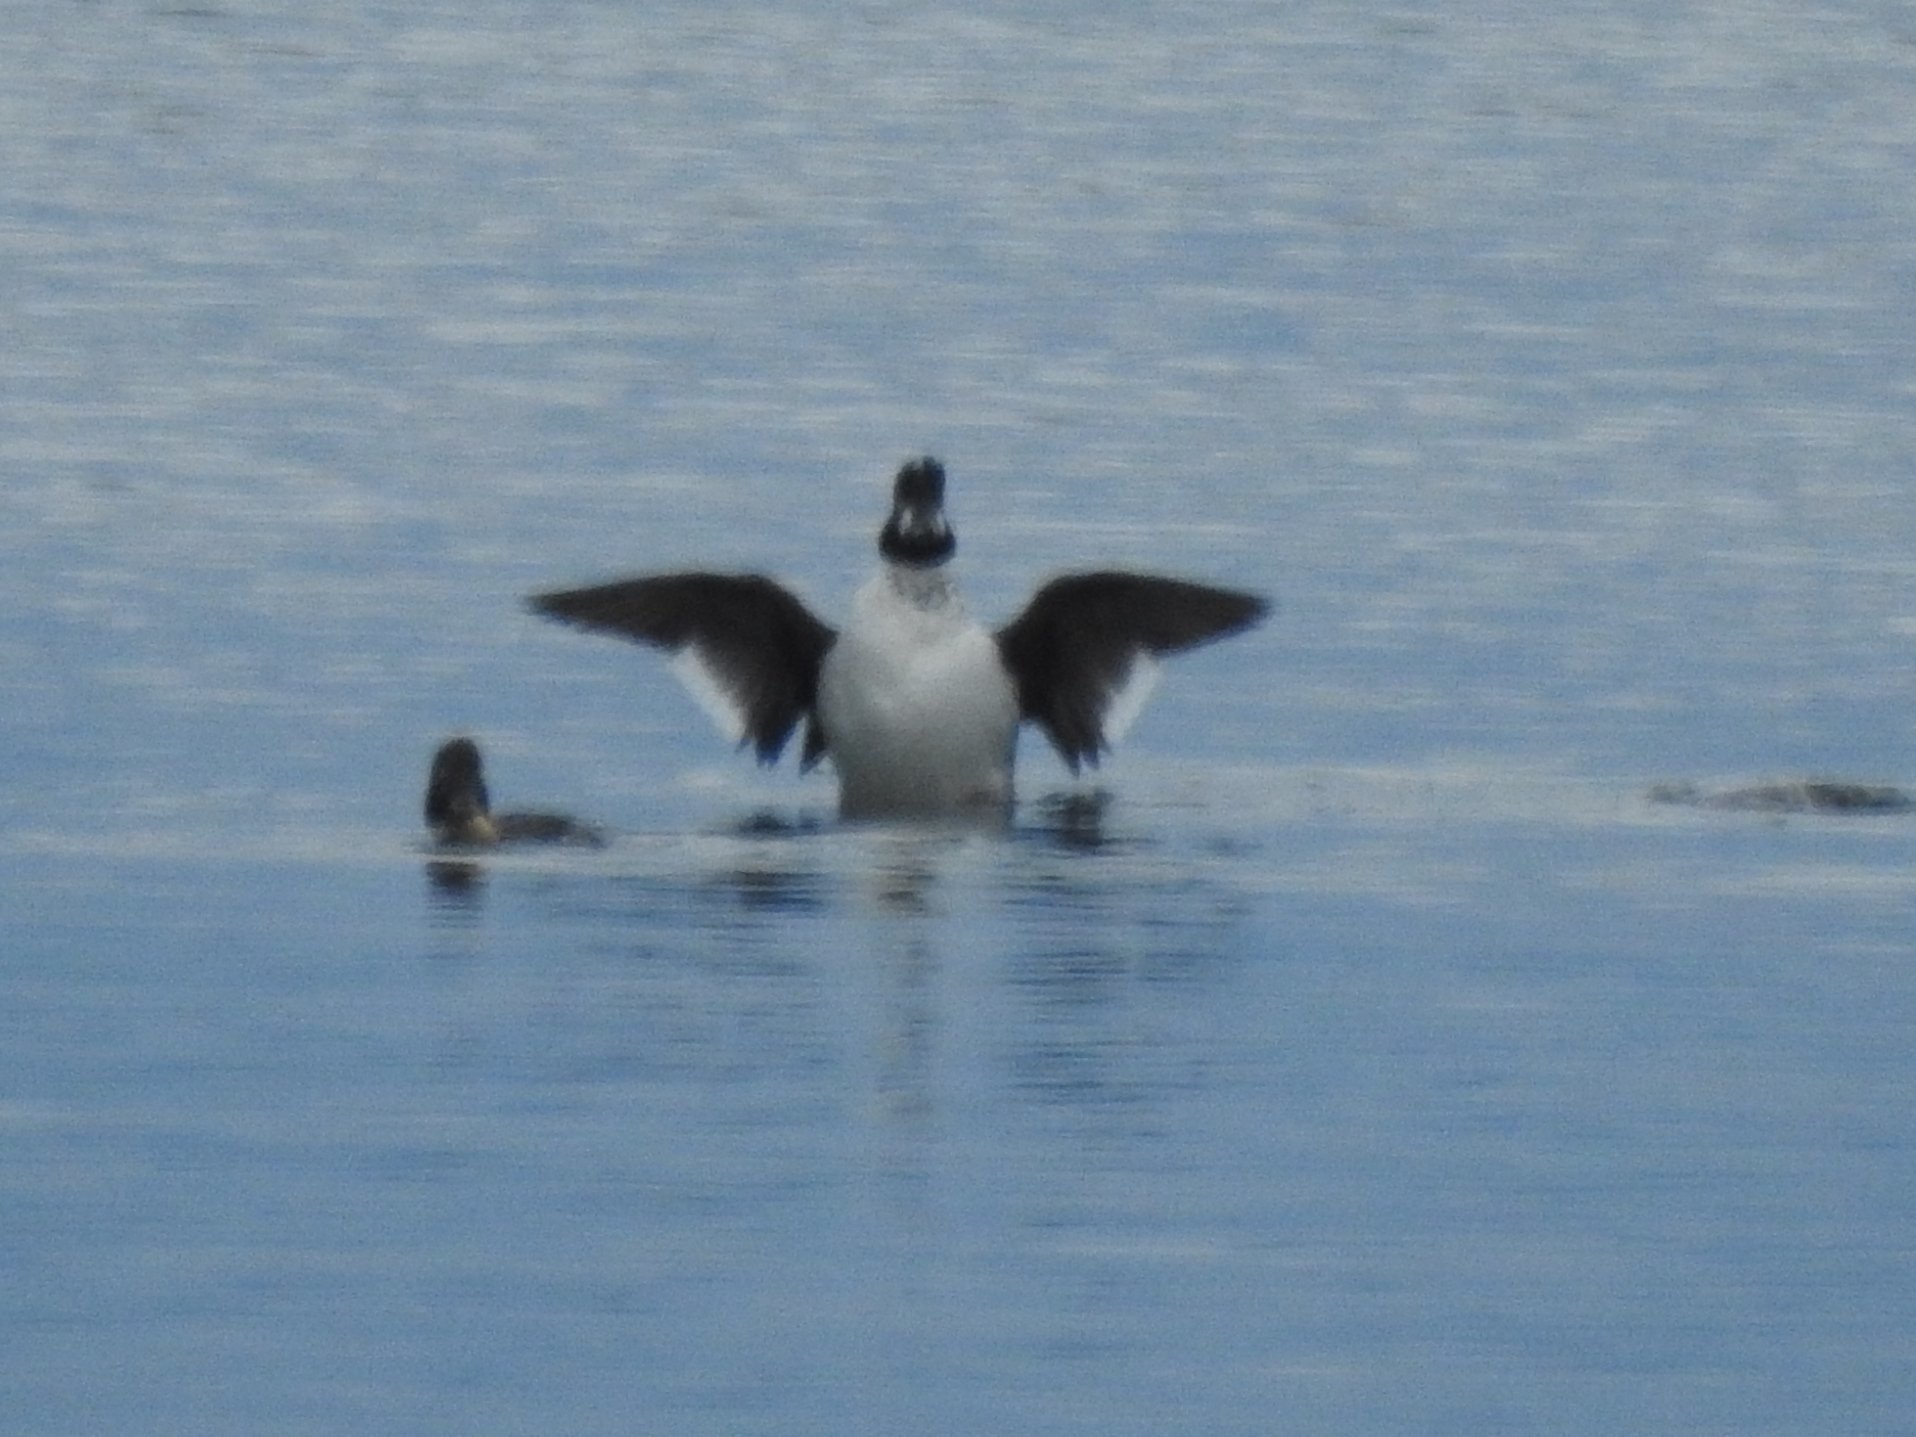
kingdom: Animalia
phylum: Chordata
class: Aves
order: Anseriformes
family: Anatidae
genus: Bucephala
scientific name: Bucephala clangula
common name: Common goldeneye
